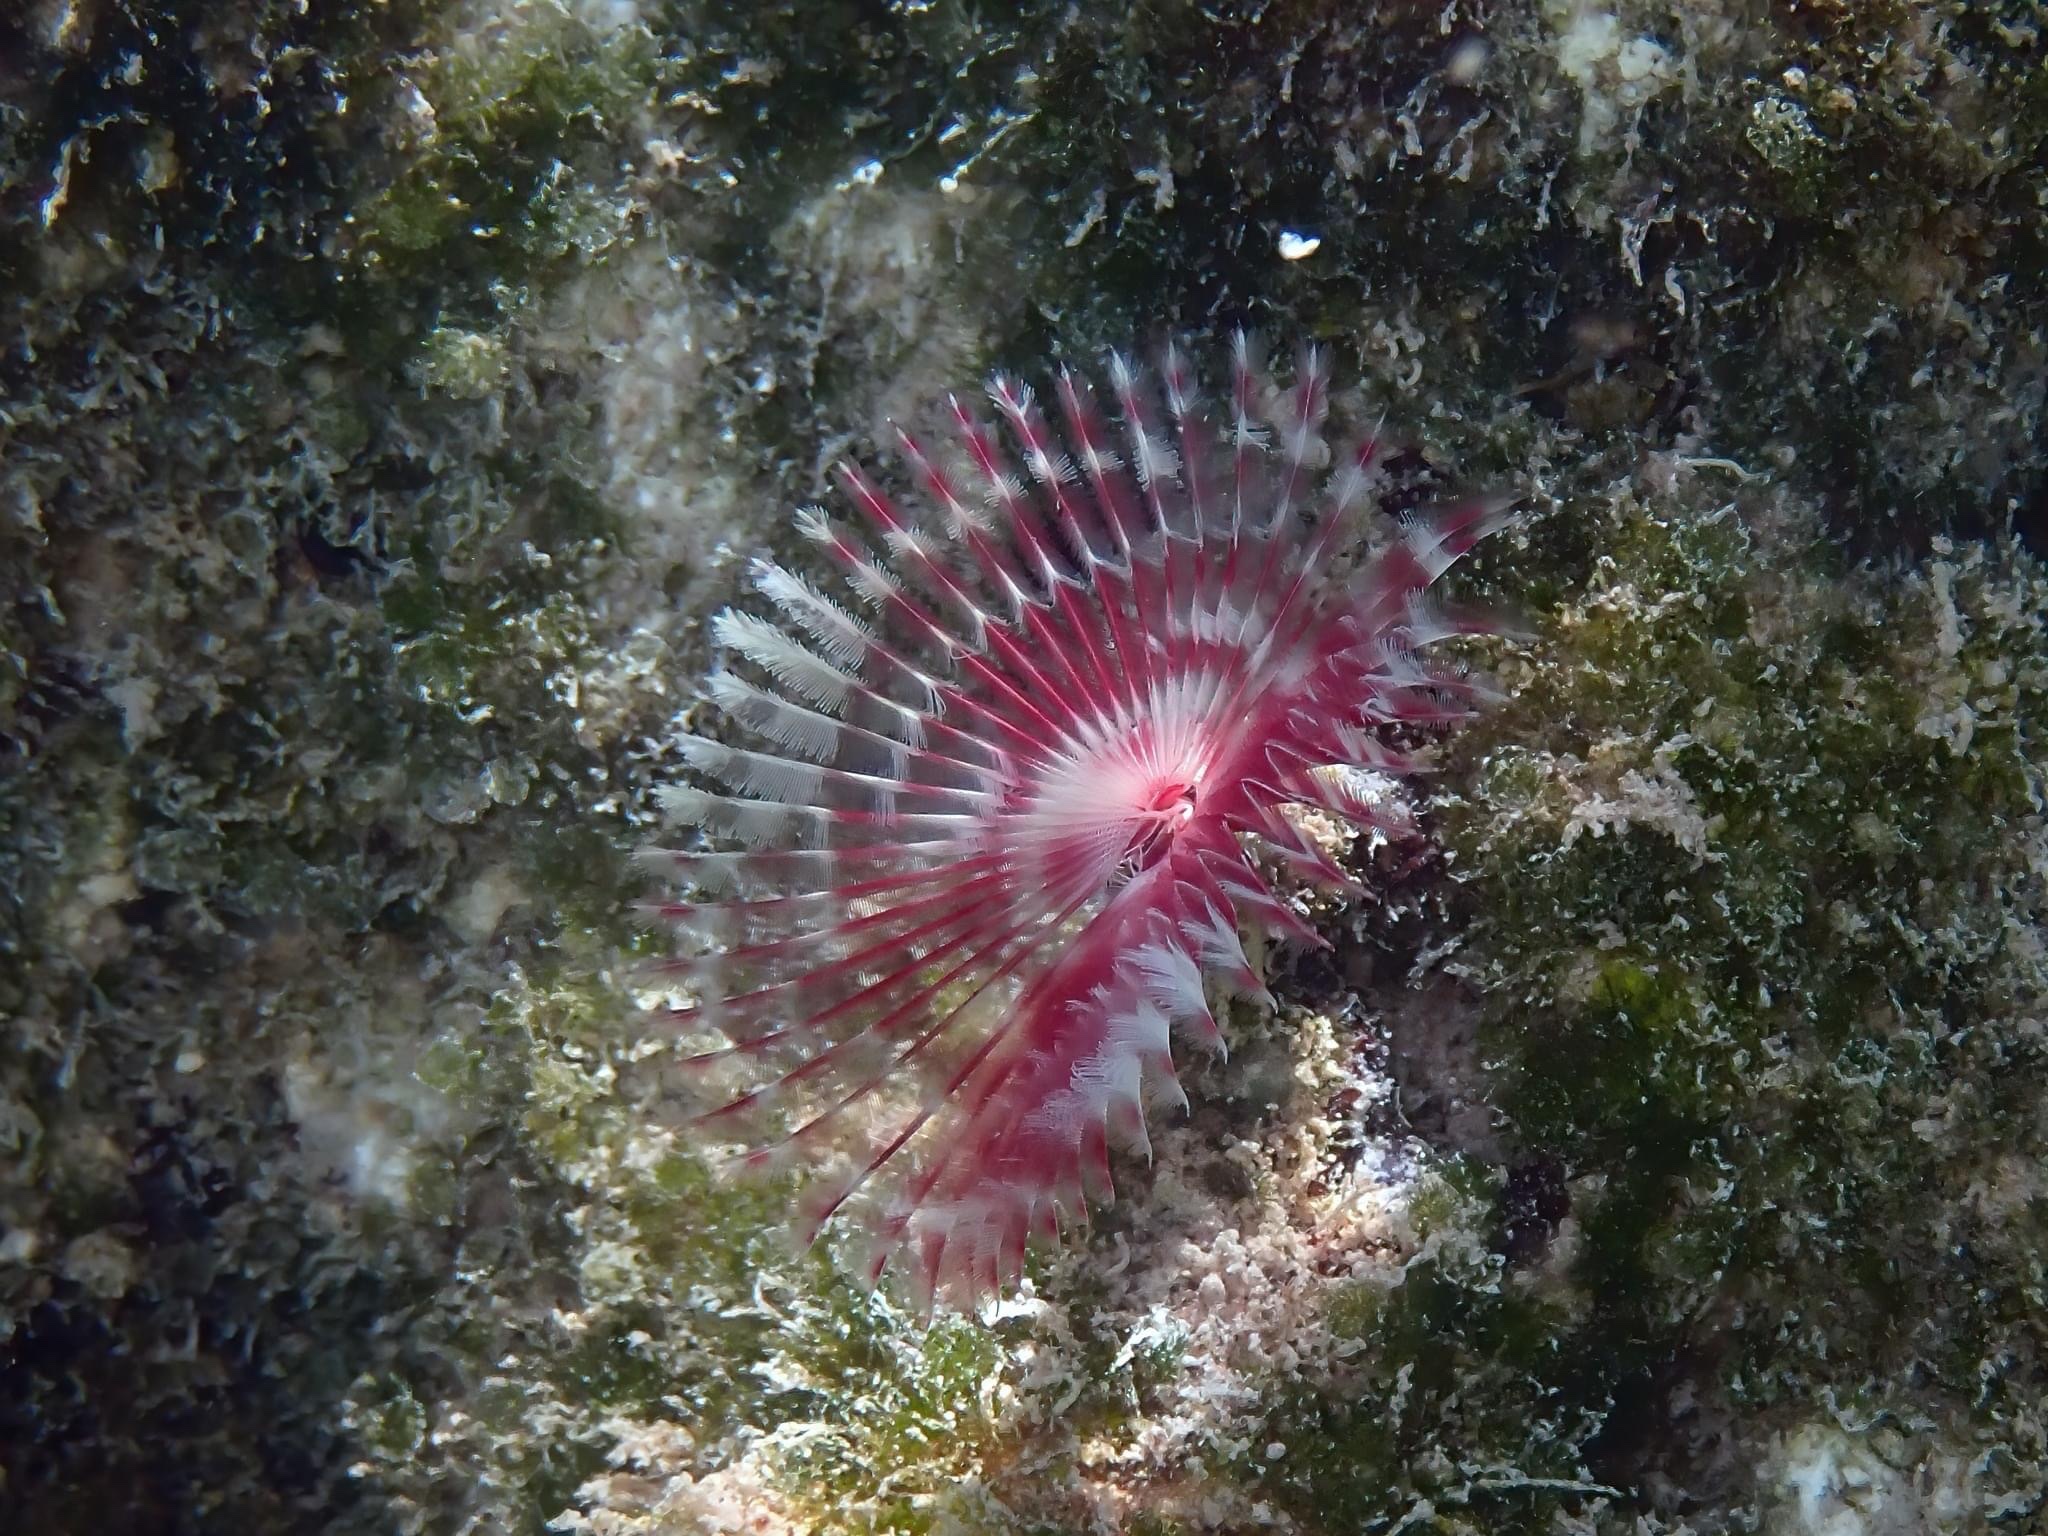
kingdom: Animalia
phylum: Annelida
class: Polychaeta
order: Sabellida
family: Sabellidae
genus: Anamobaea
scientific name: Anamobaea orstedii
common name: Split-crown feather duster
